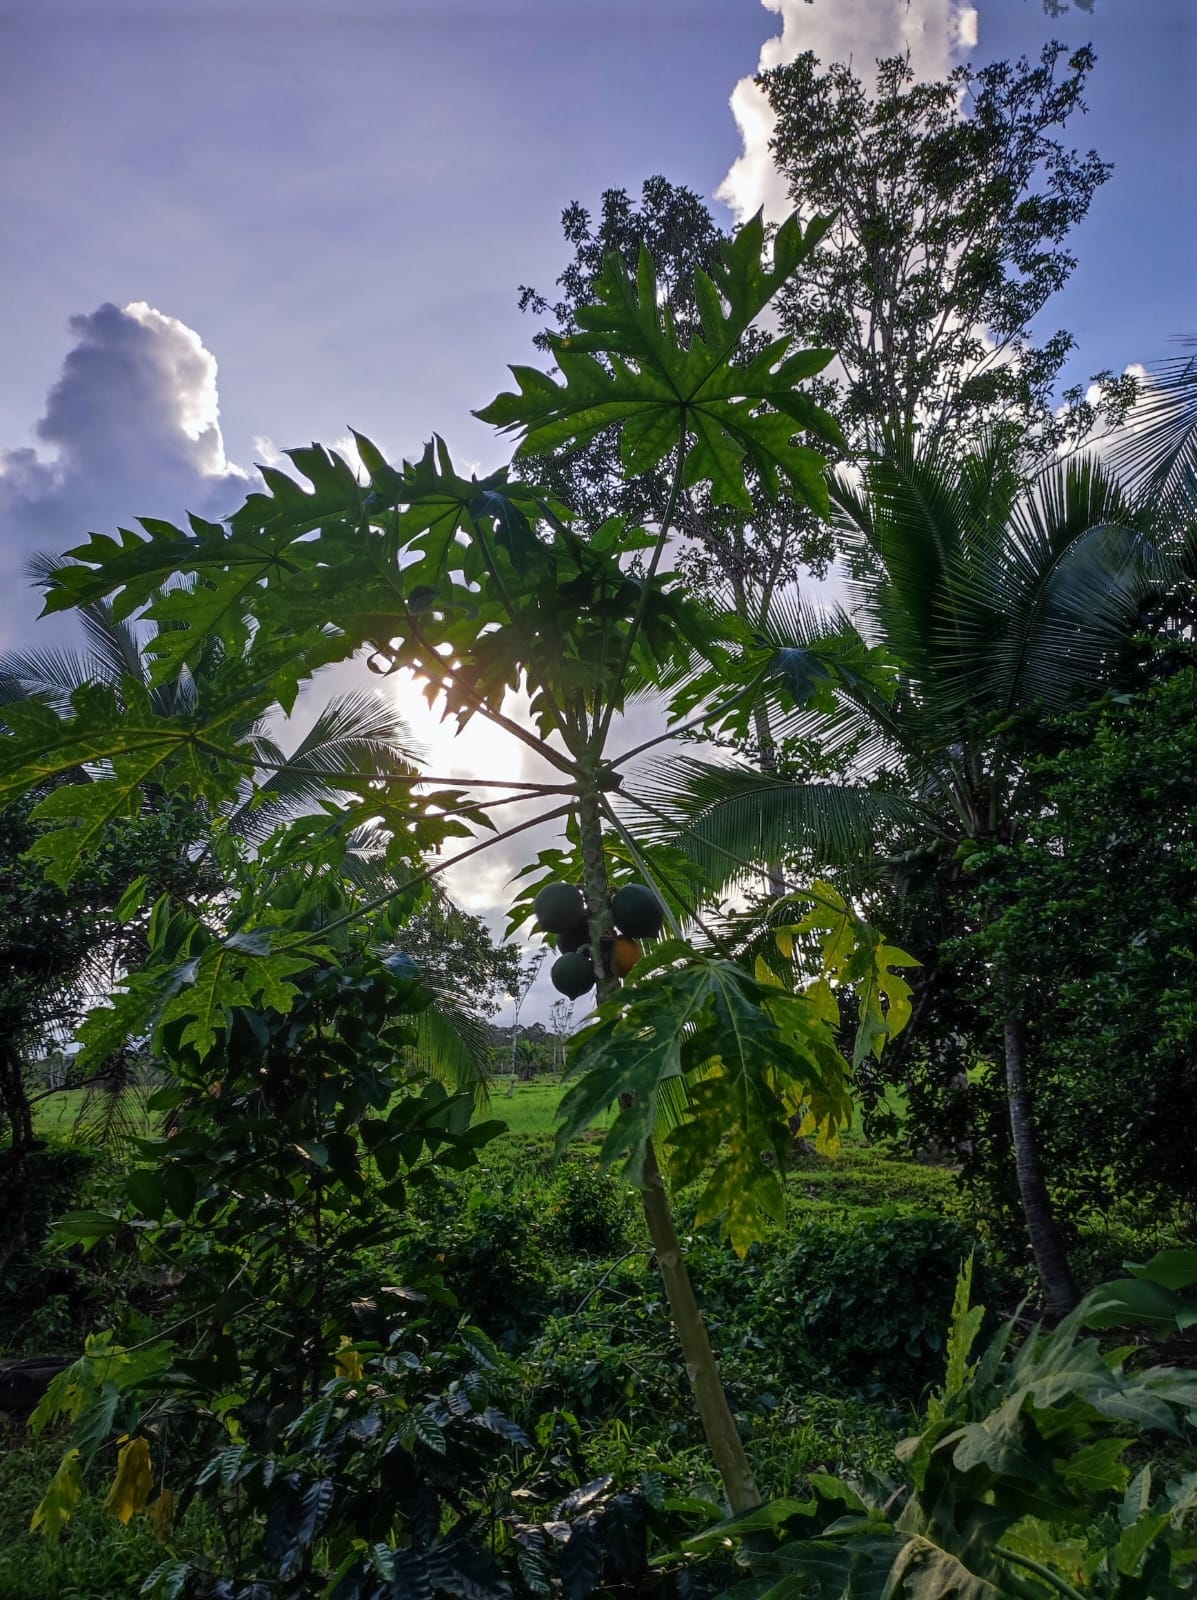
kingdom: Plantae
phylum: Tracheophyta
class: Magnoliopsida
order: Brassicales
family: Caricaceae
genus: Carica
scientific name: Carica papaya
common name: Papaya
